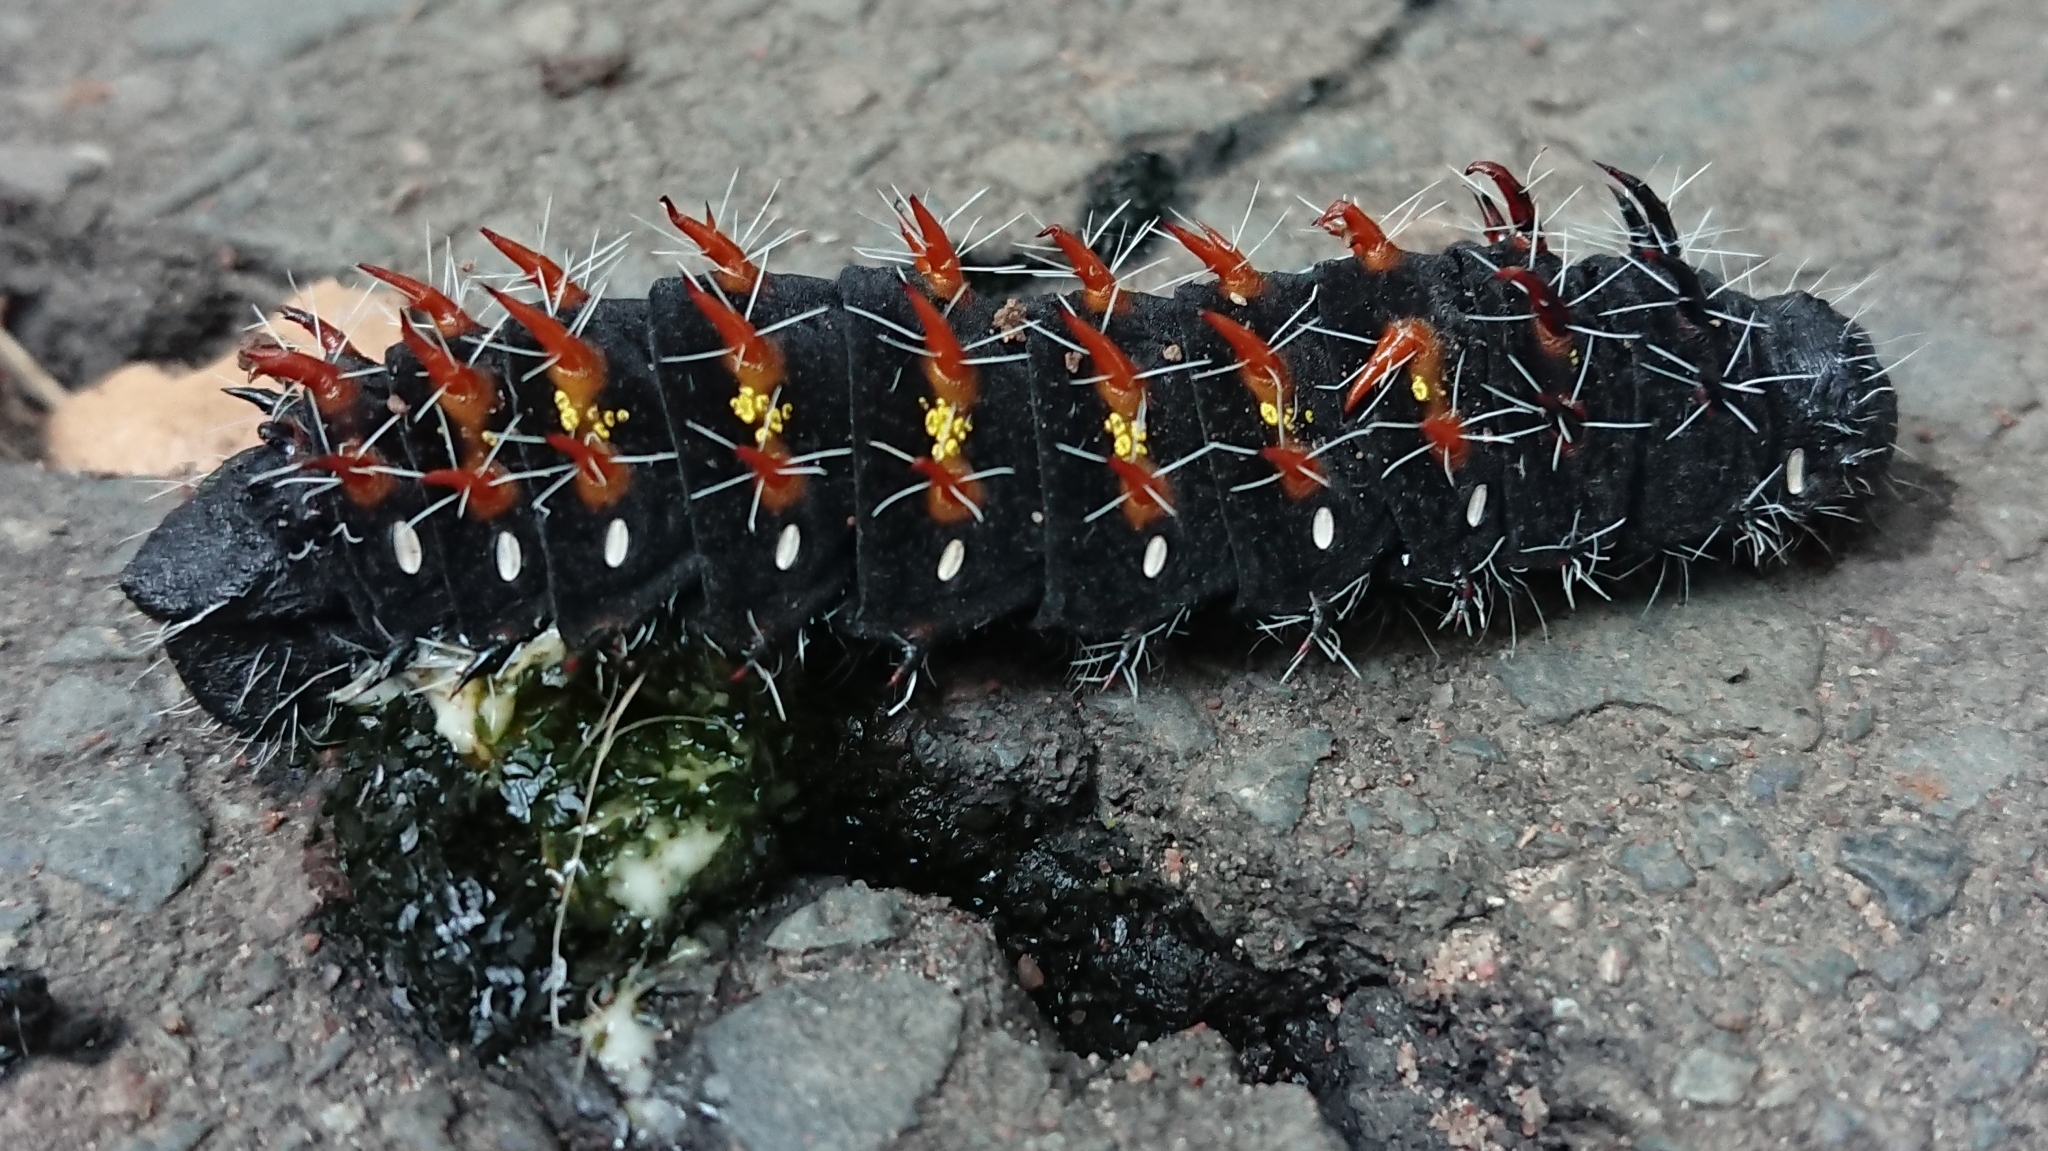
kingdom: Animalia
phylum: Arthropoda
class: Insecta
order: Lepidoptera
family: Saturniidae
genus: Nudaurelia
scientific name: Nudaurelia wahlbergi
